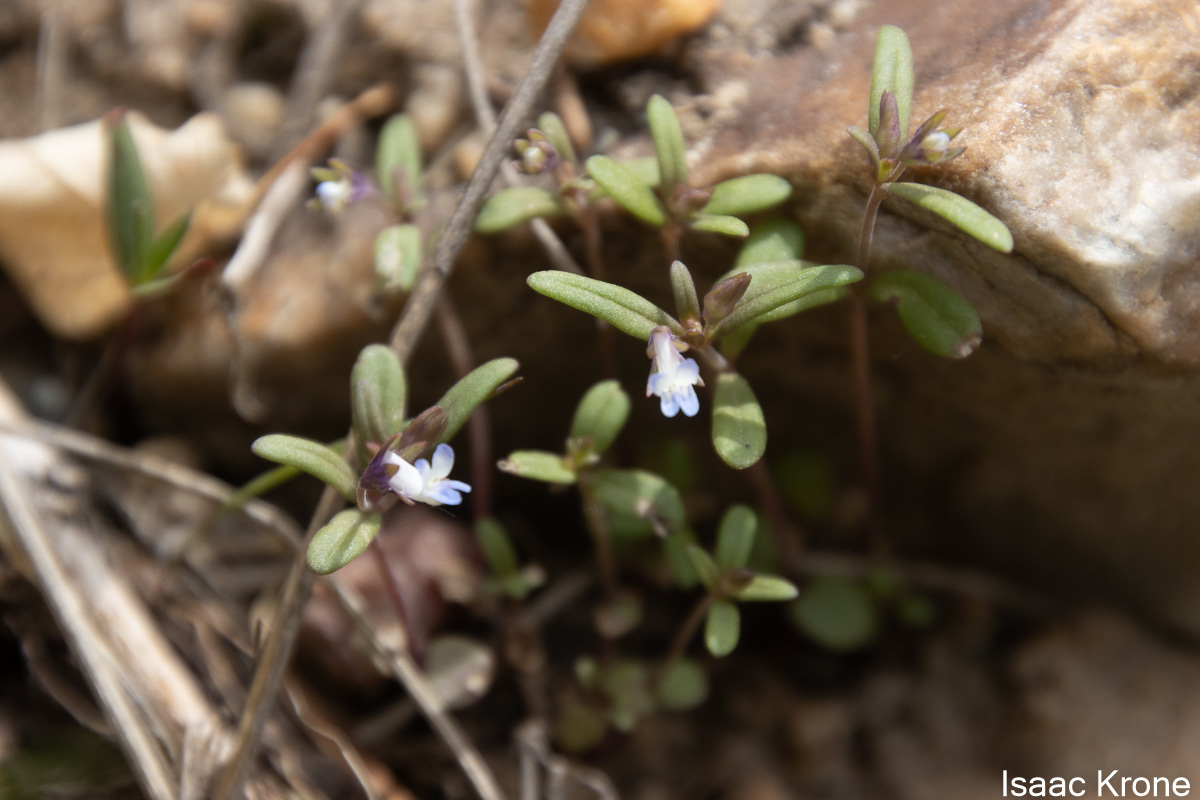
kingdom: Plantae
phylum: Tracheophyta
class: Magnoliopsida
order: Lamiales
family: Plantaginaceae
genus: Collinsia
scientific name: Collinsia parviflora
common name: Blue-lips
